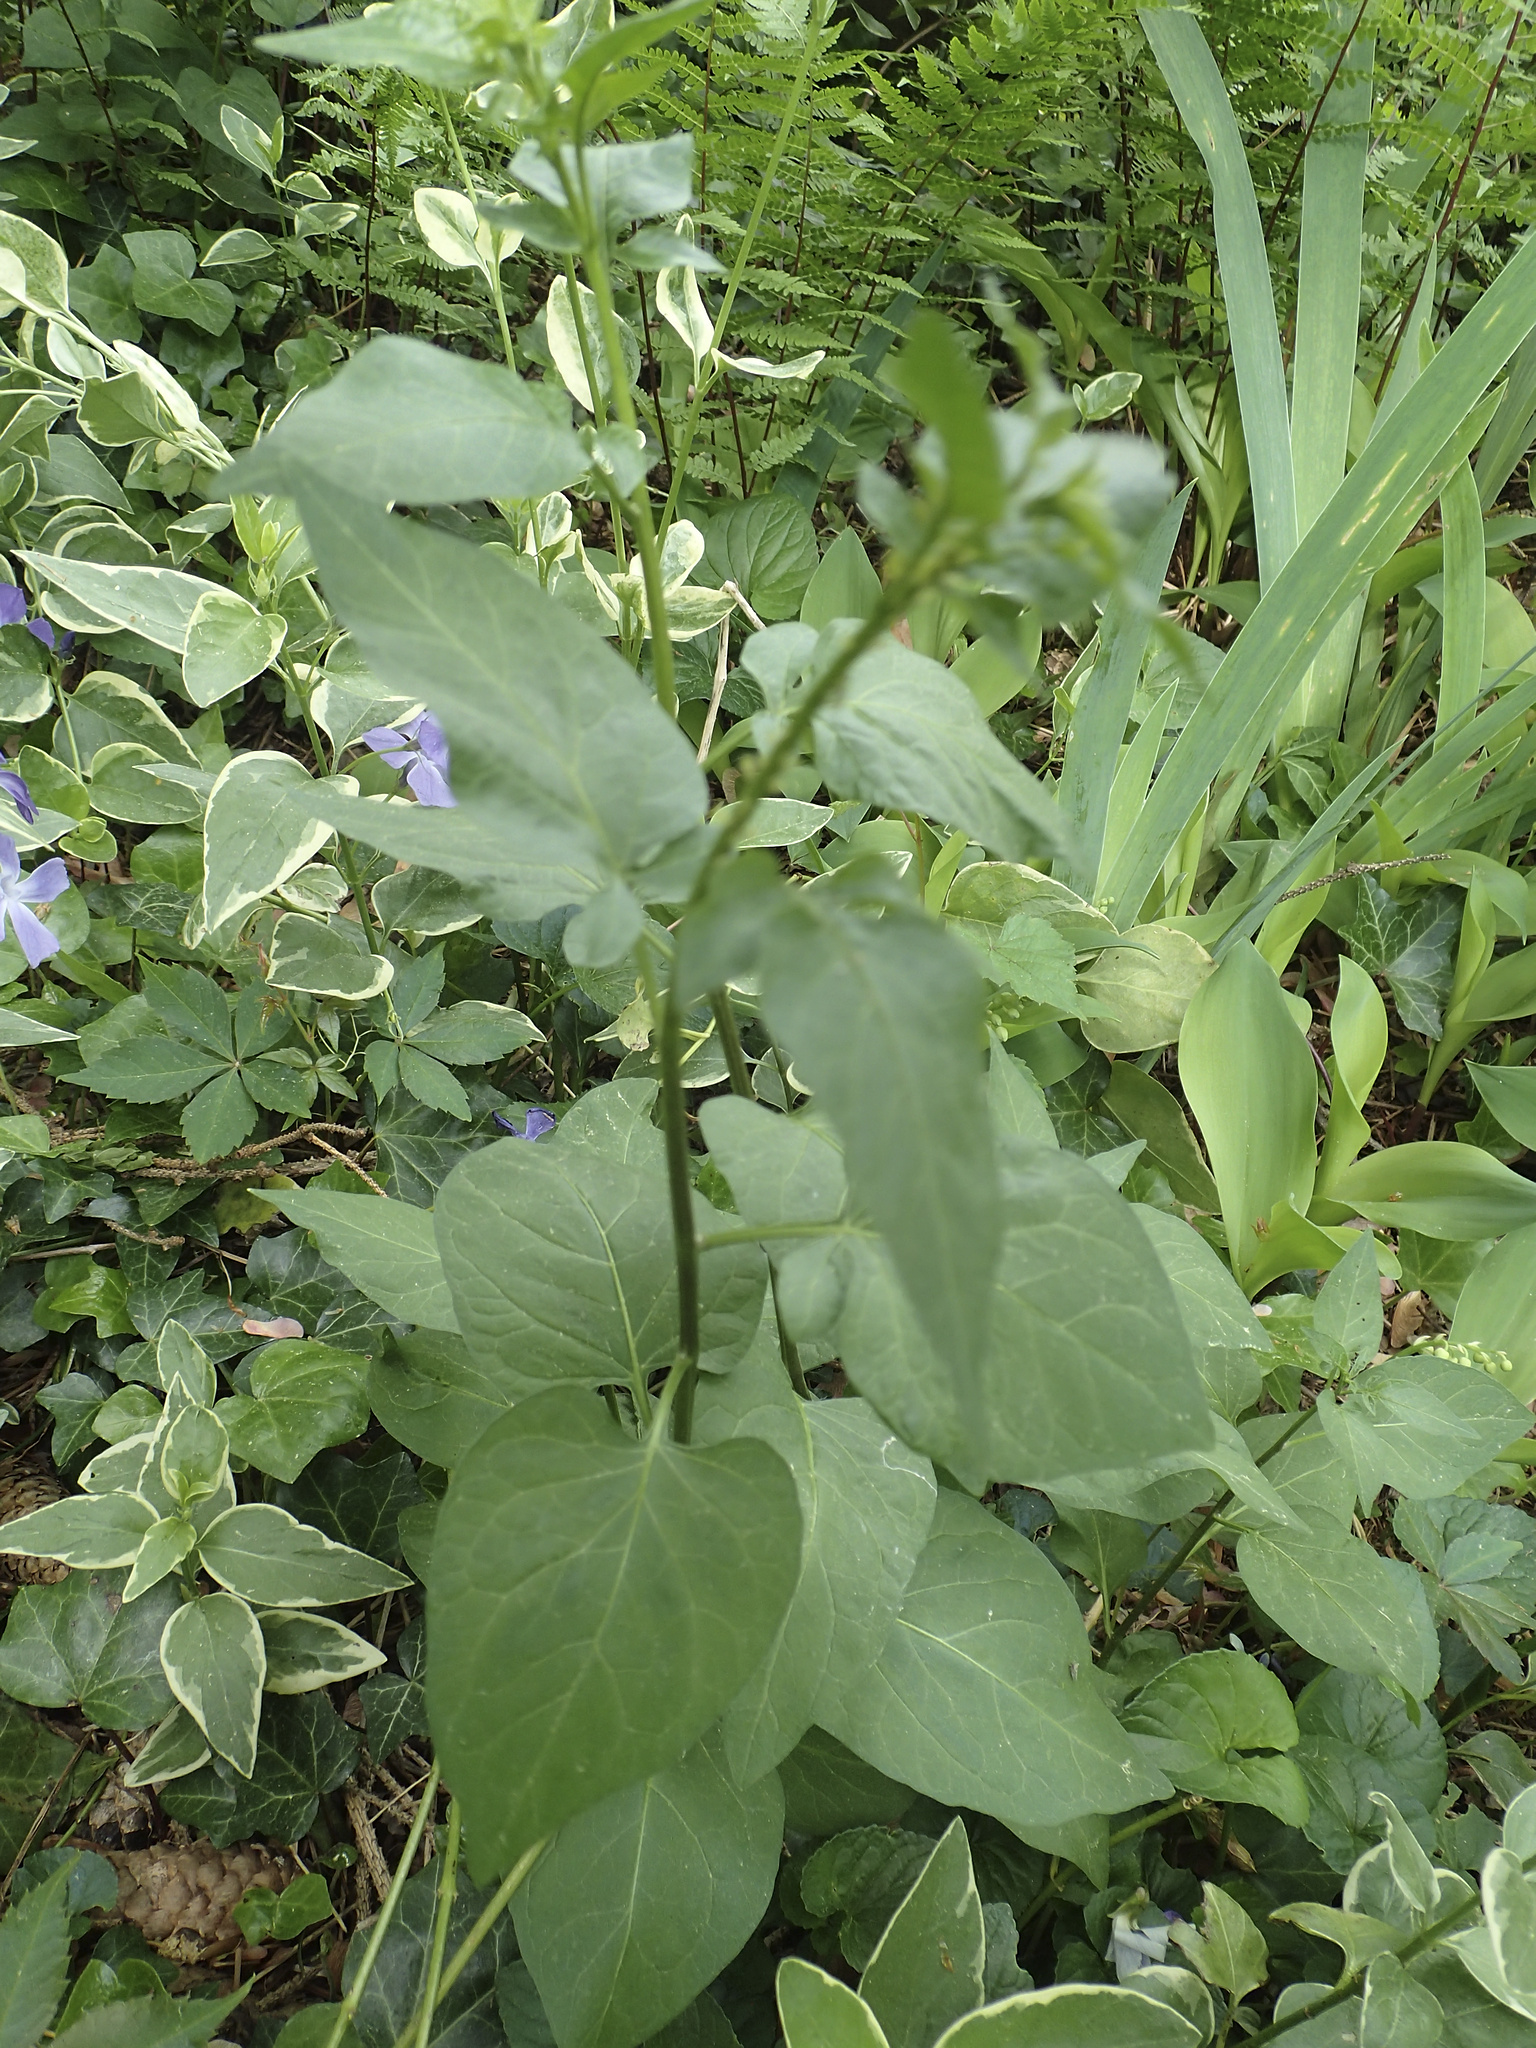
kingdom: Plantae
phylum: Tracheophyta
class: Magnoliopsida
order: Solanales
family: Solanaceae
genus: Solanum
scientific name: Solanum dulcamara
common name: Climbing nightshade
